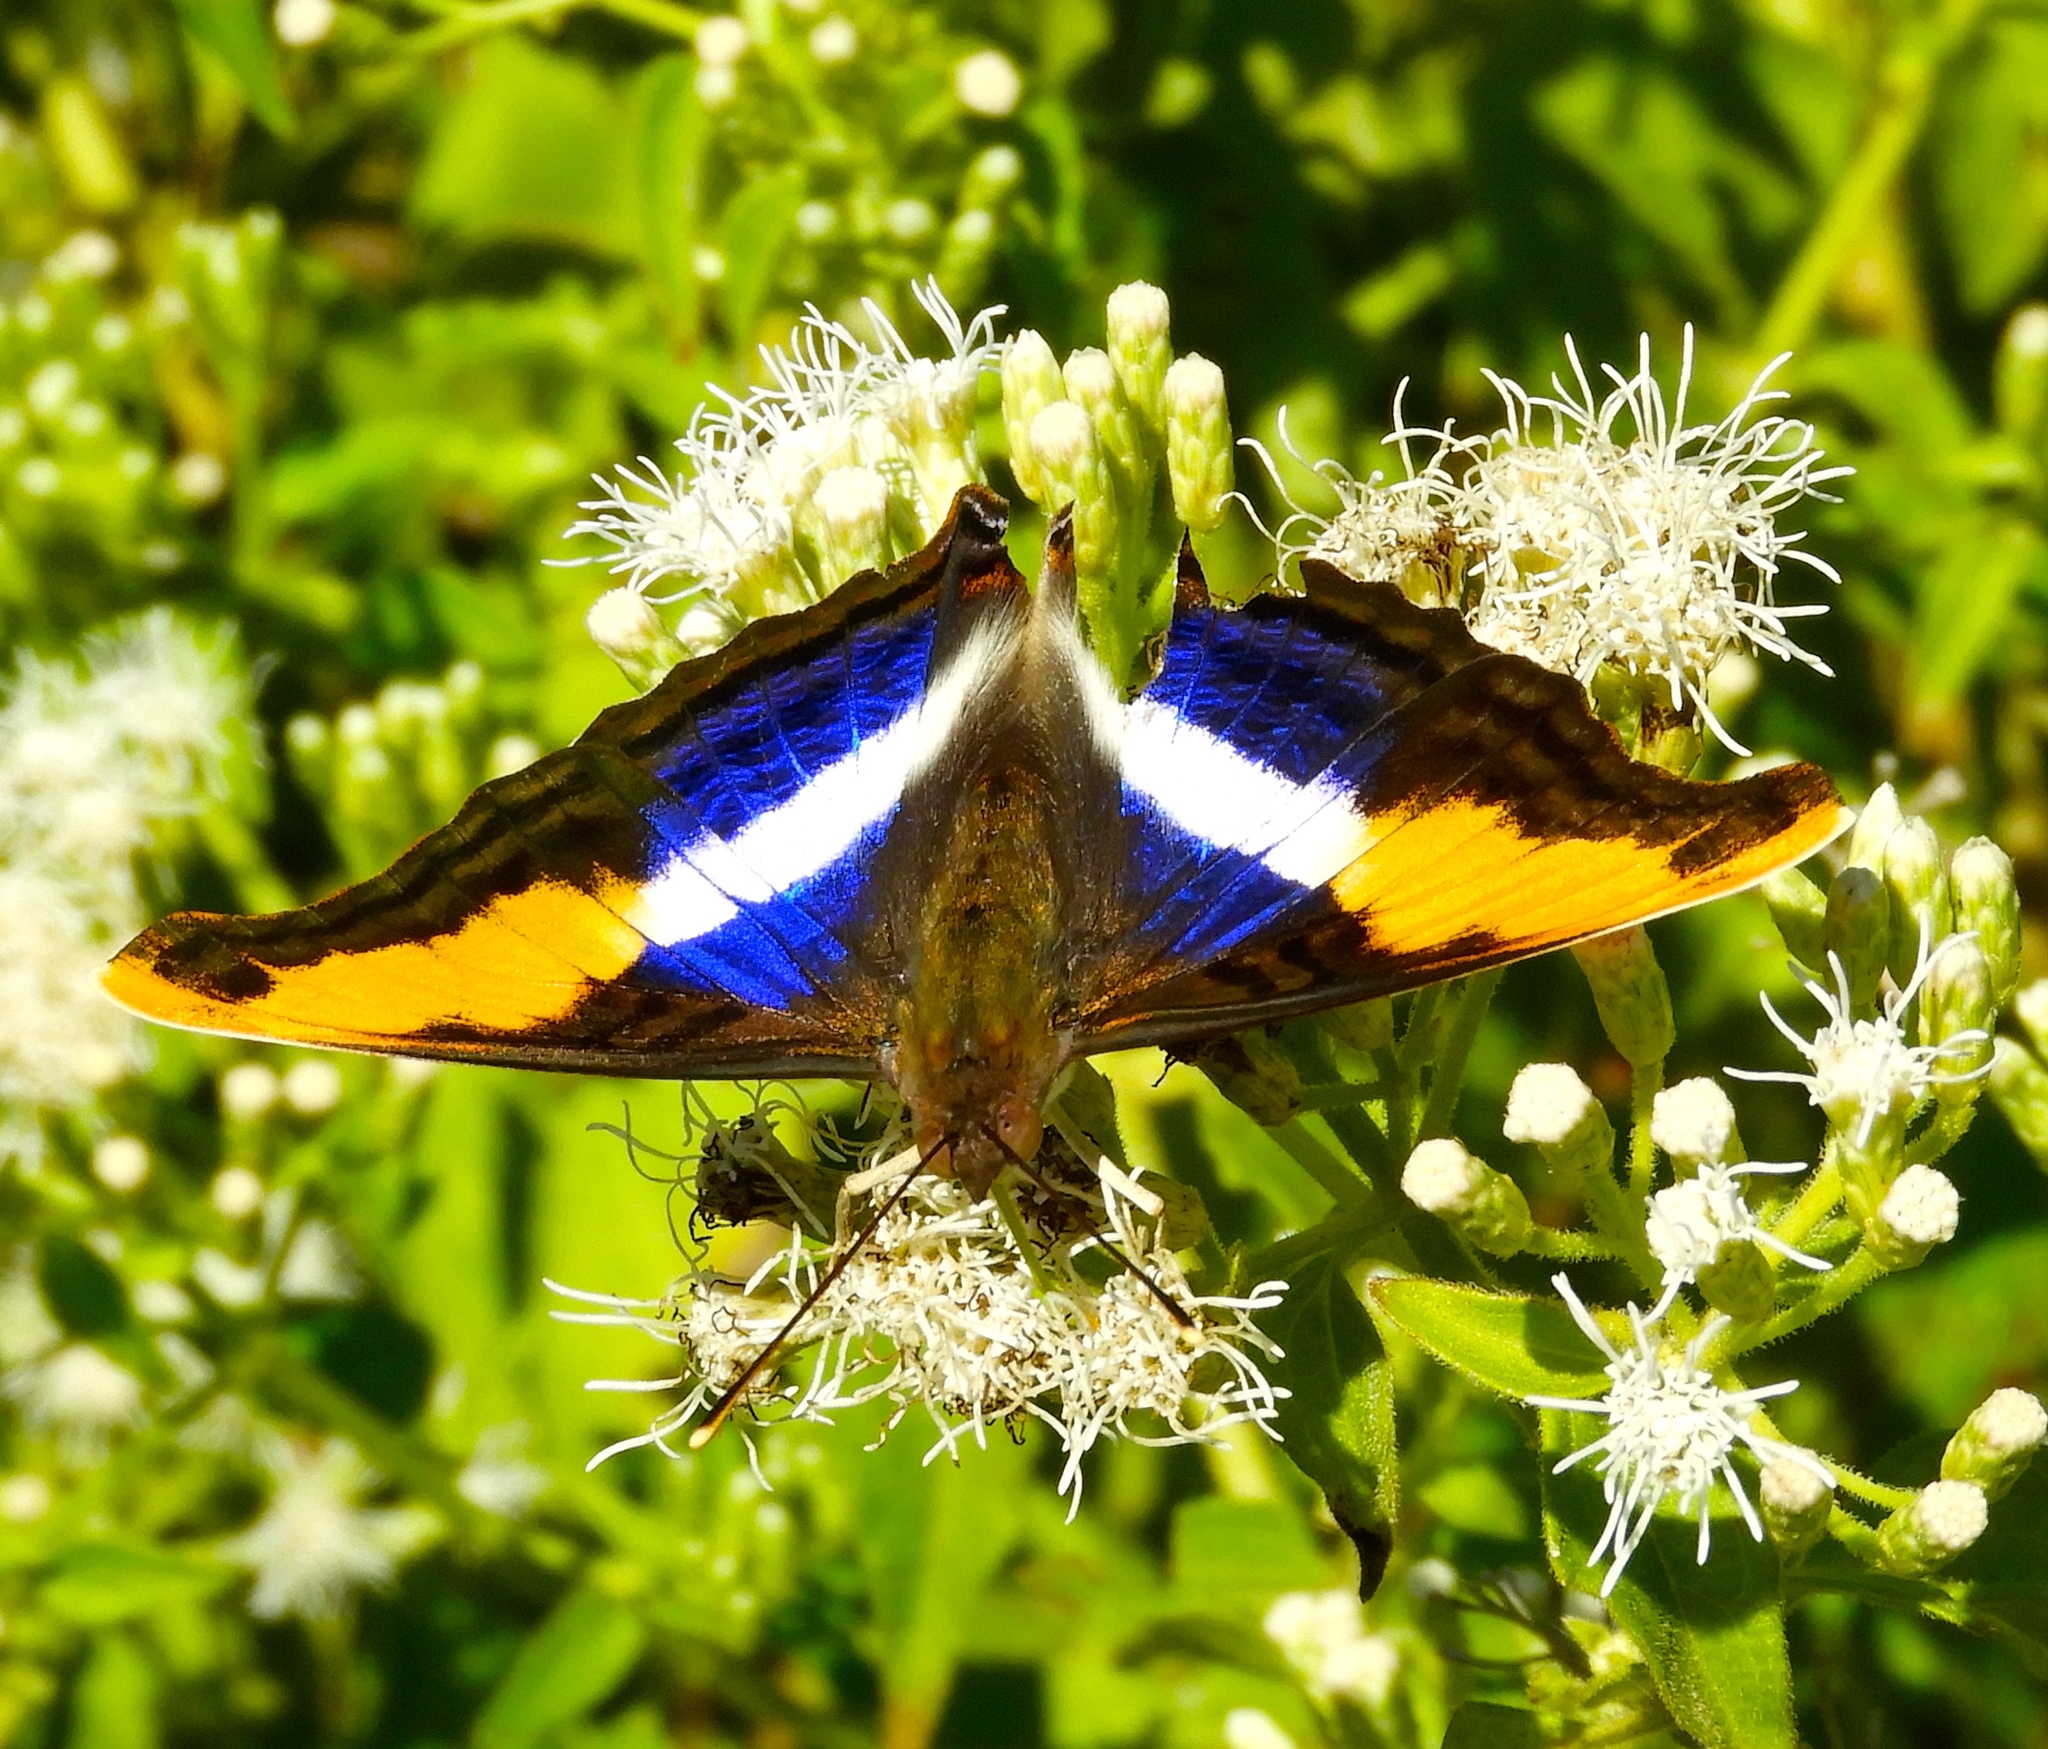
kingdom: Animalia
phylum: Arthropoda
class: Insecta
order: Lepidoptera
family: Nymphalidae
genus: Doxocopa
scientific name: Doxocopa laure
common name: Silver emperor
